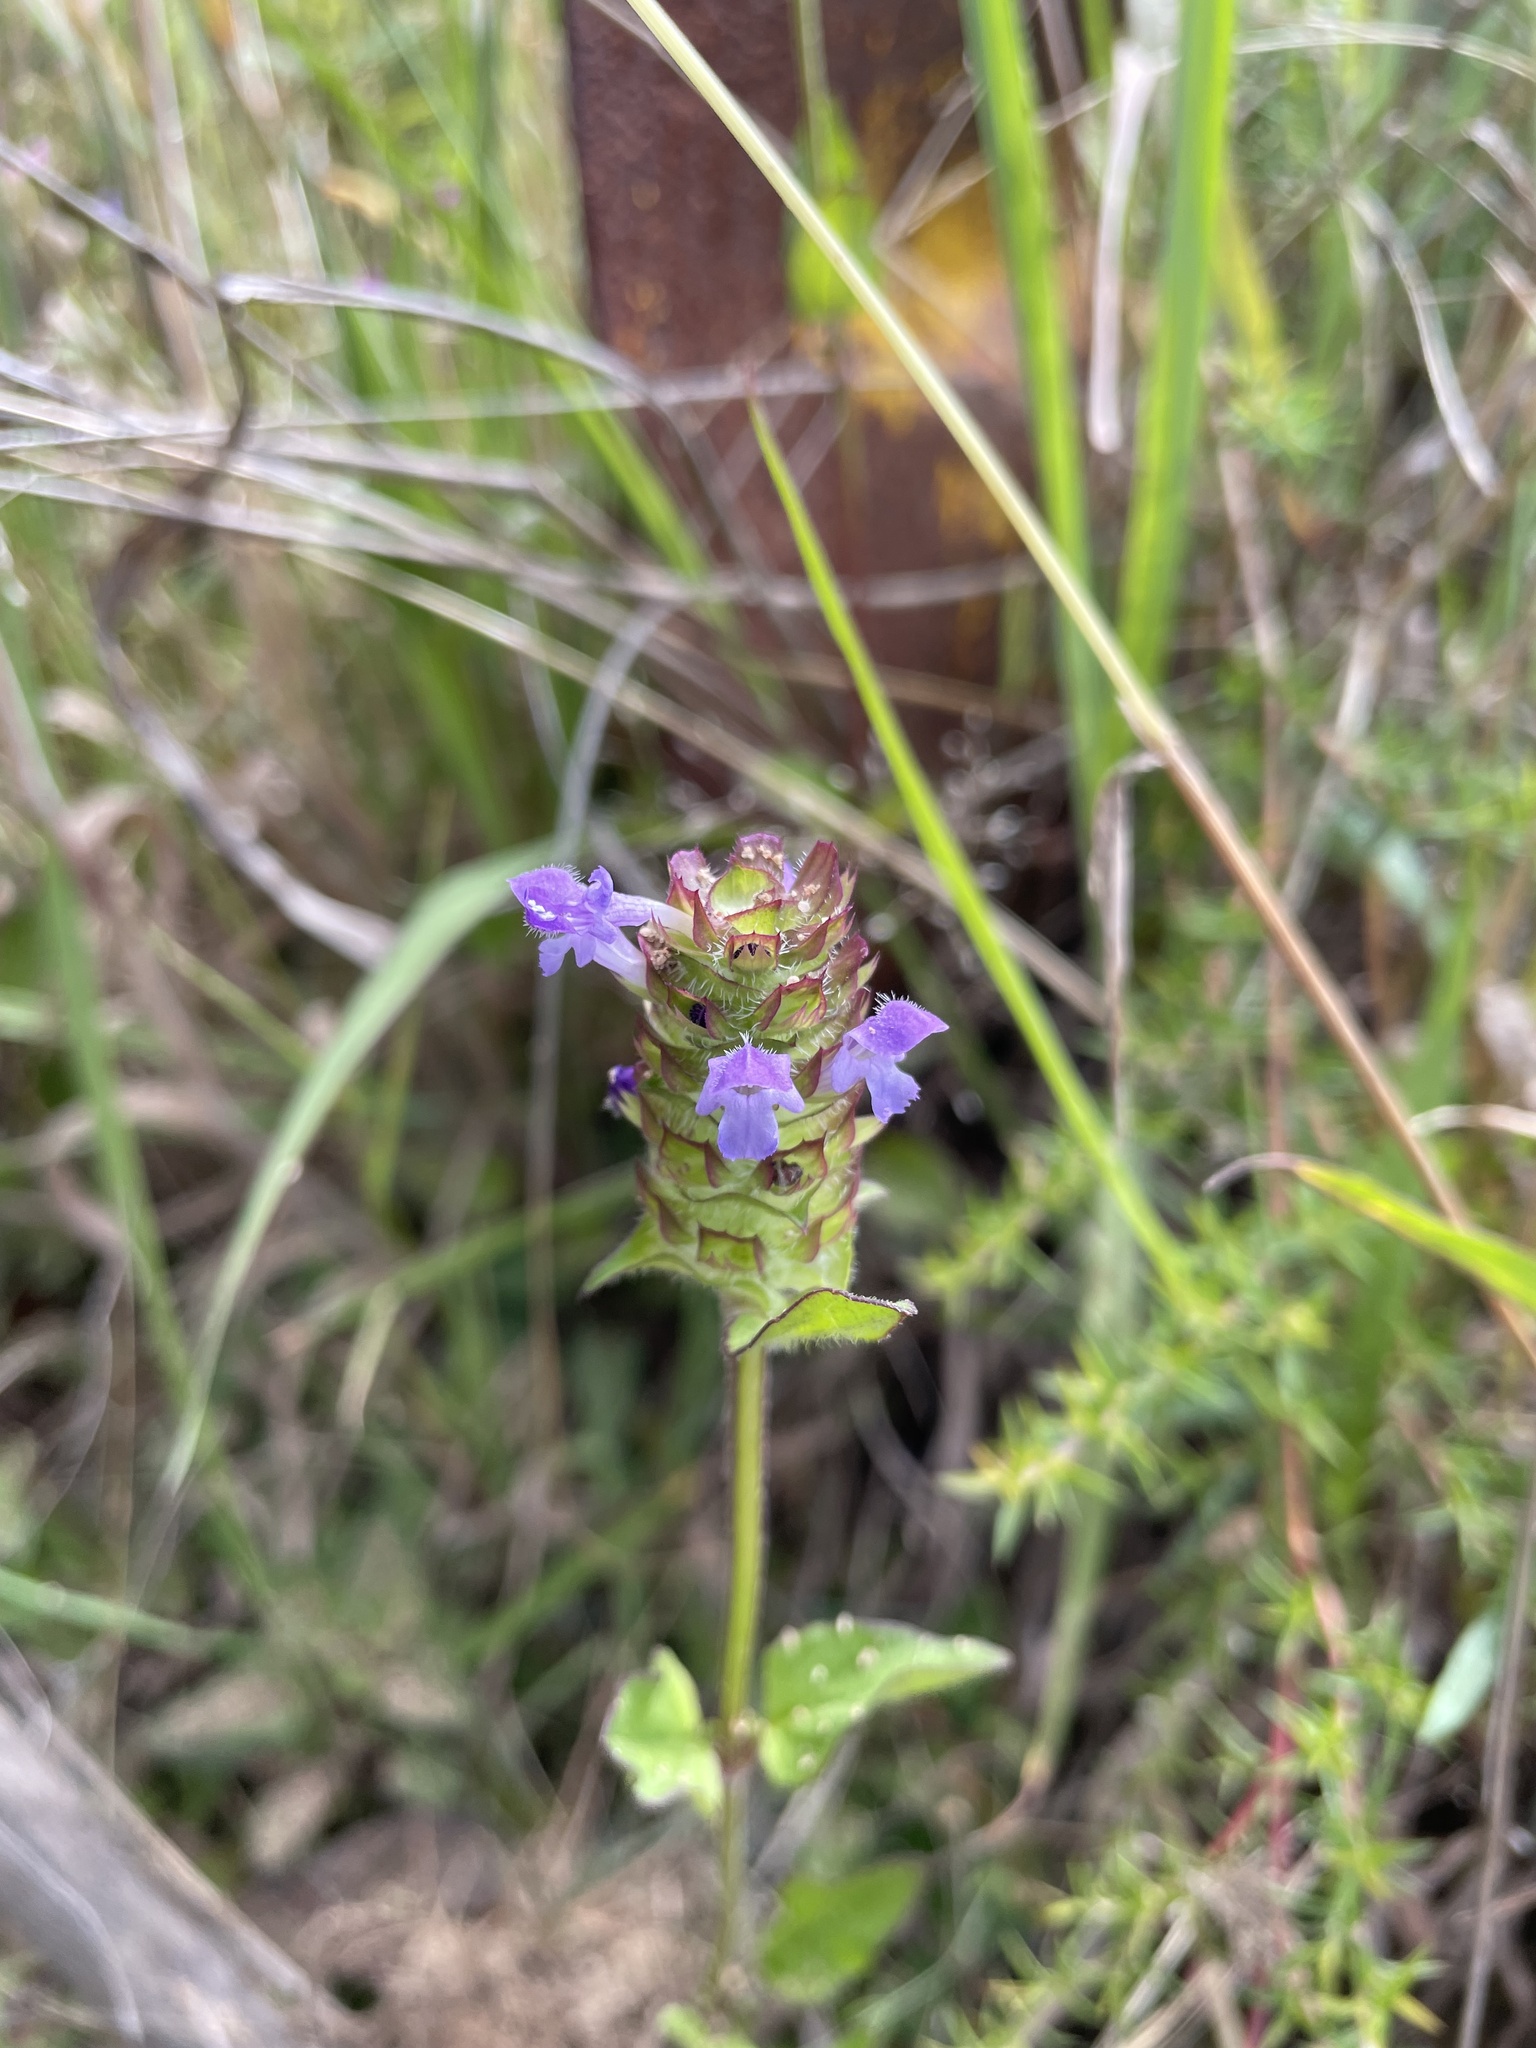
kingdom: Plantae
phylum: Tracheophyta
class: Magnoliopsida
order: Lamiales
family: Lamiaceae
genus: Prunella
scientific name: Prunella vulgaris
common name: Heal-all
